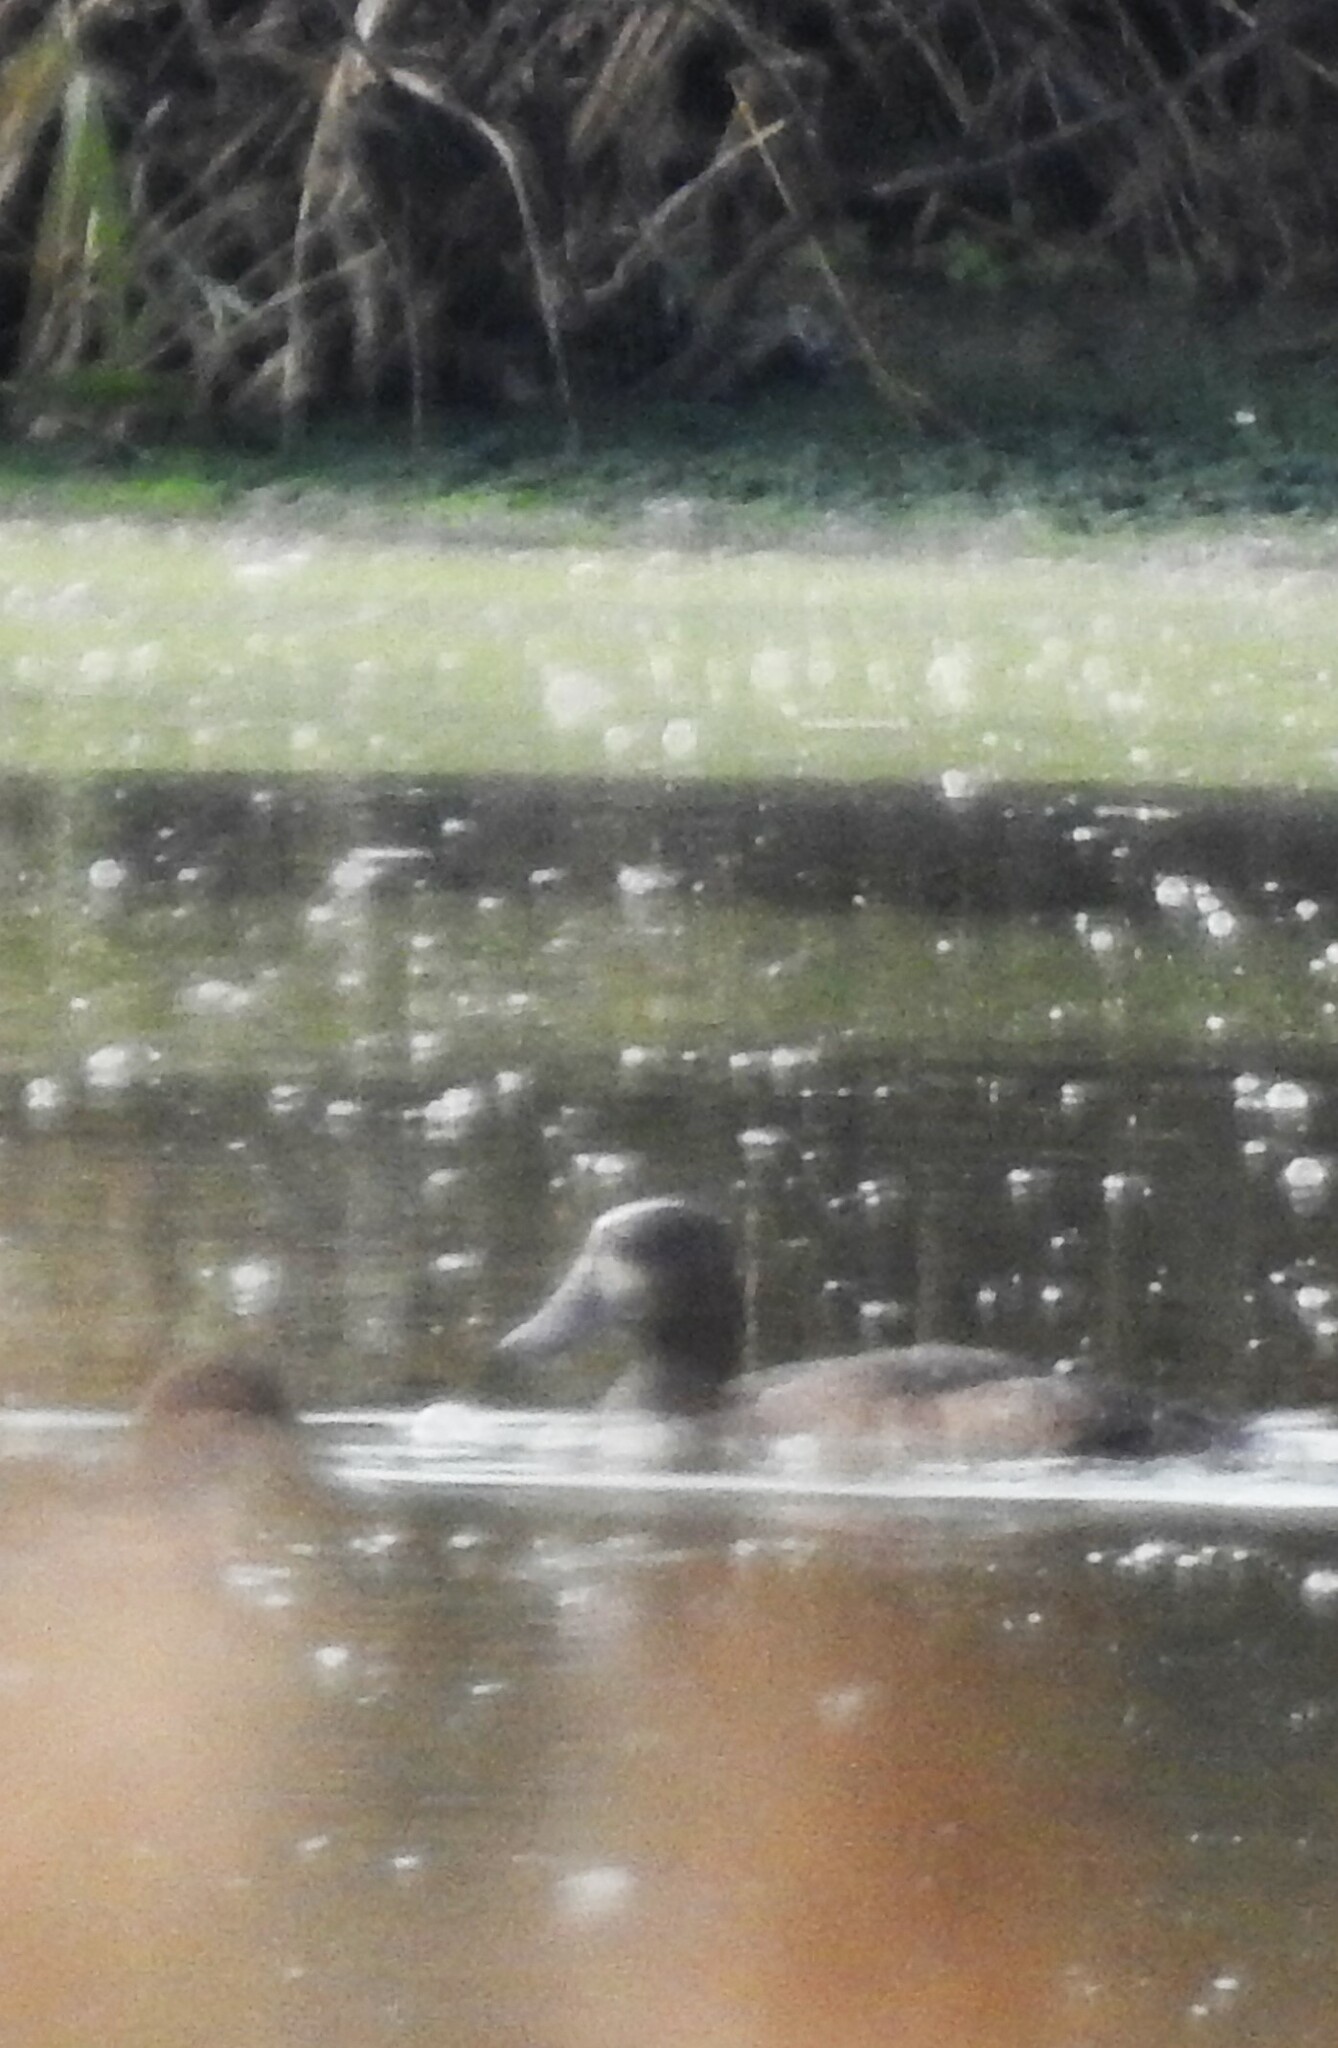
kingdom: Animalia
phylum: Chordata
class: Aves
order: Anseriformes
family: Anatidae
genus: Aythya
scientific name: Aythya fuligula
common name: Tufted duck
